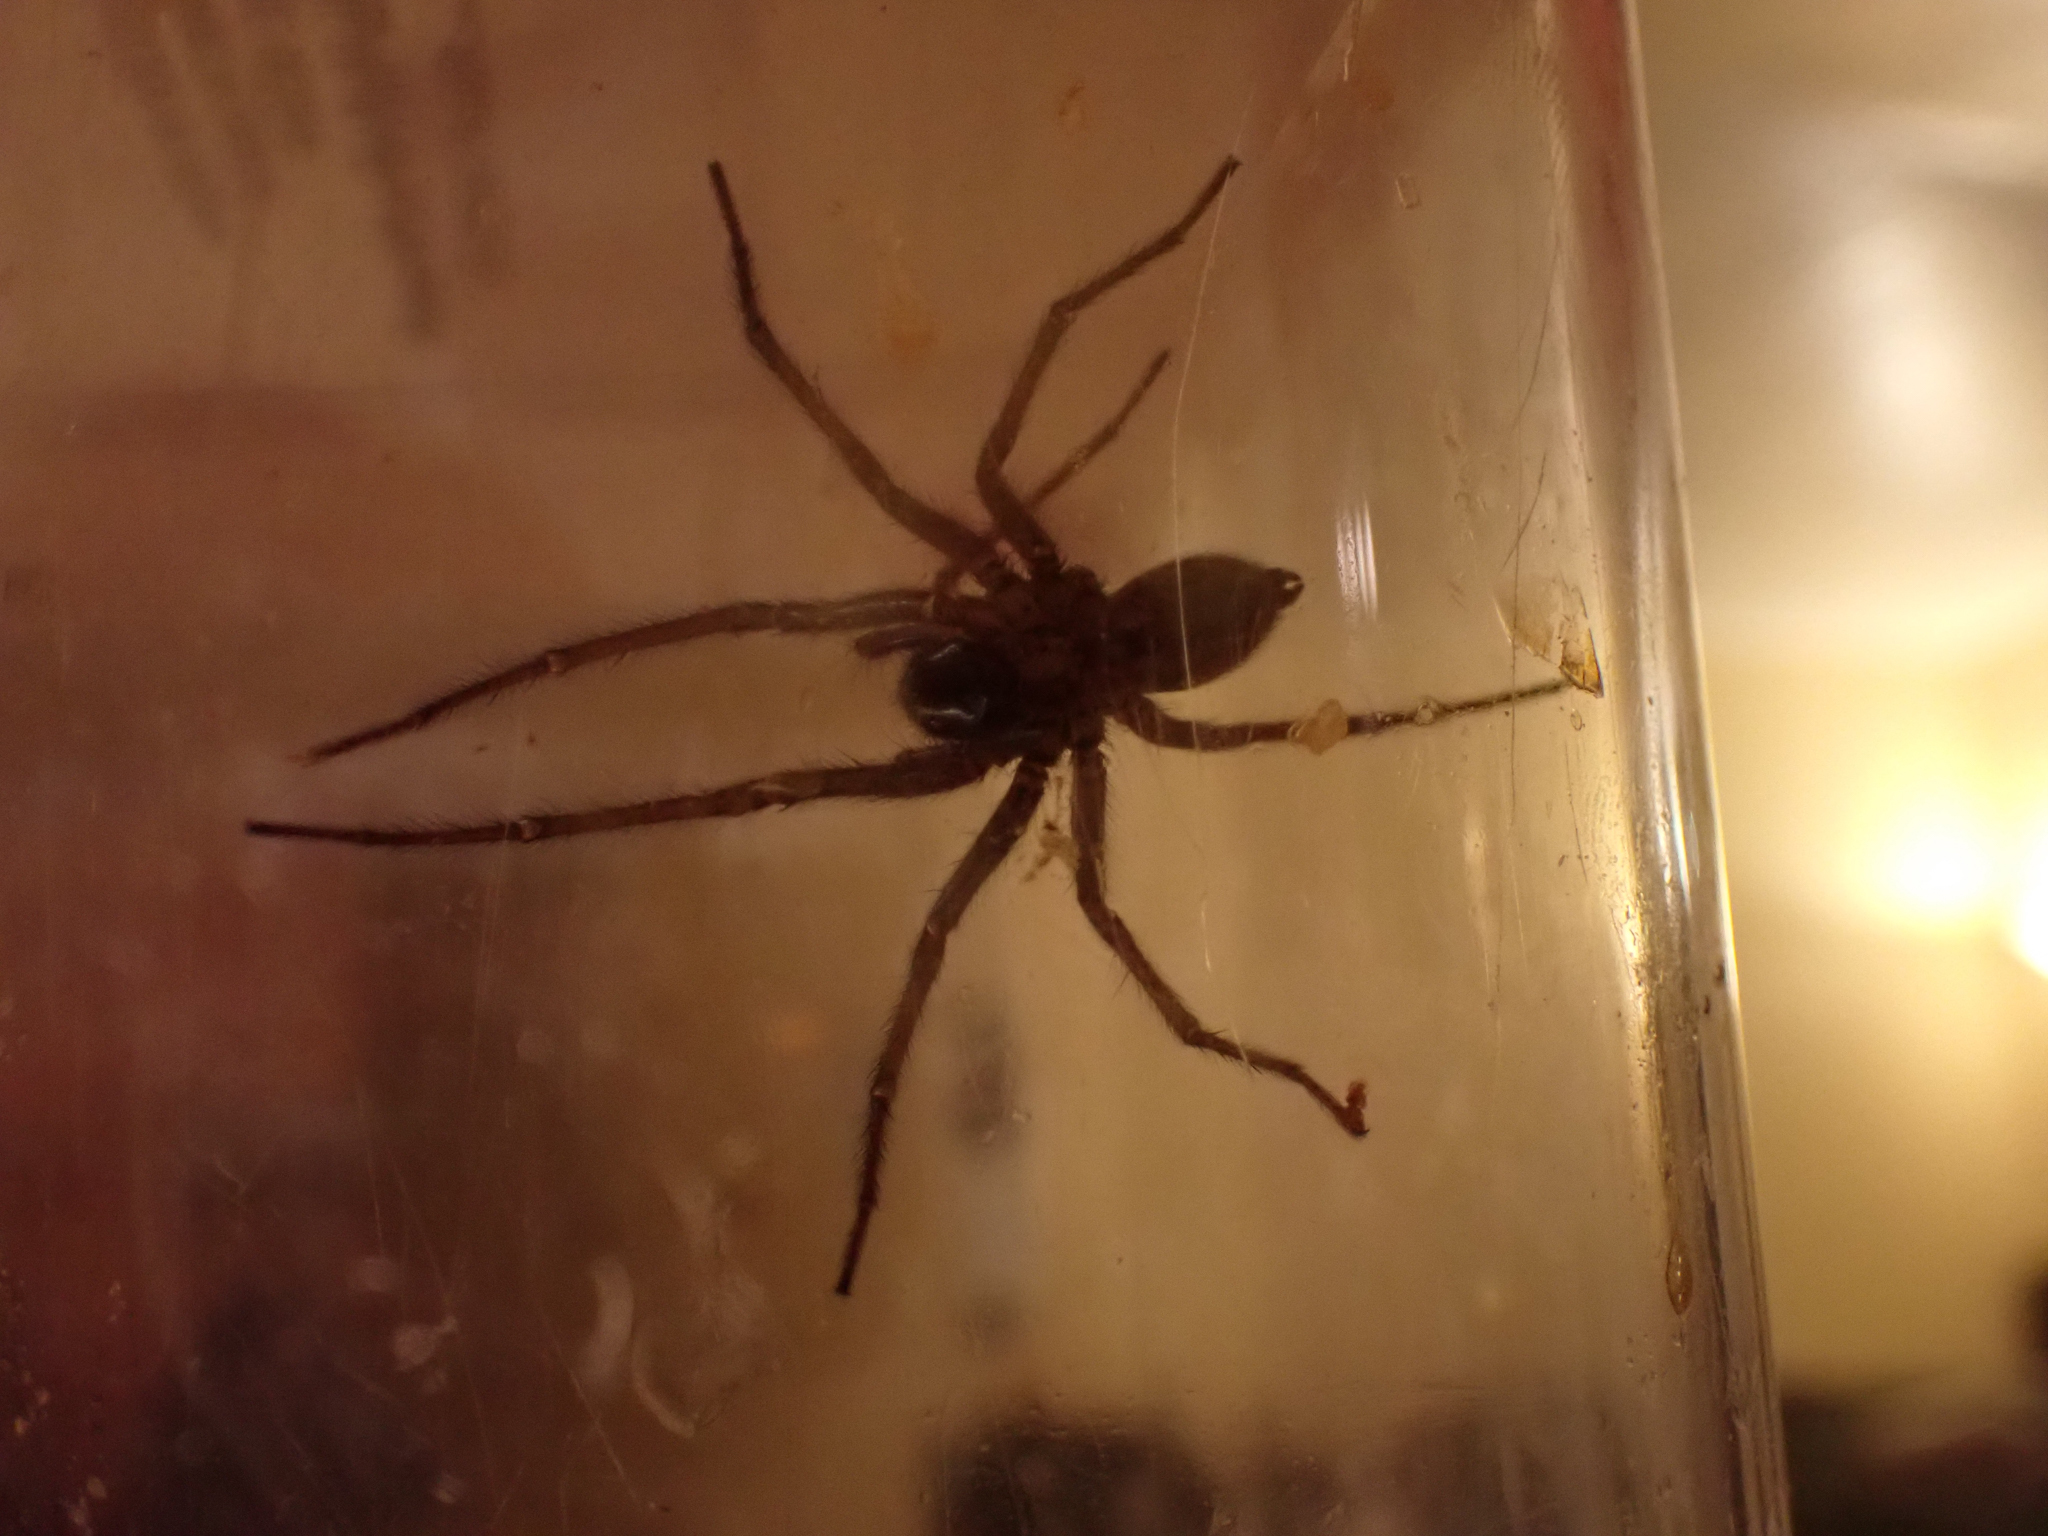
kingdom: Animalia
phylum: Arthropoda
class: Arachnida
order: Araneae
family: Agelenidae
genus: Eratigena
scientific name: Eratigena duellica
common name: Giant house spider
